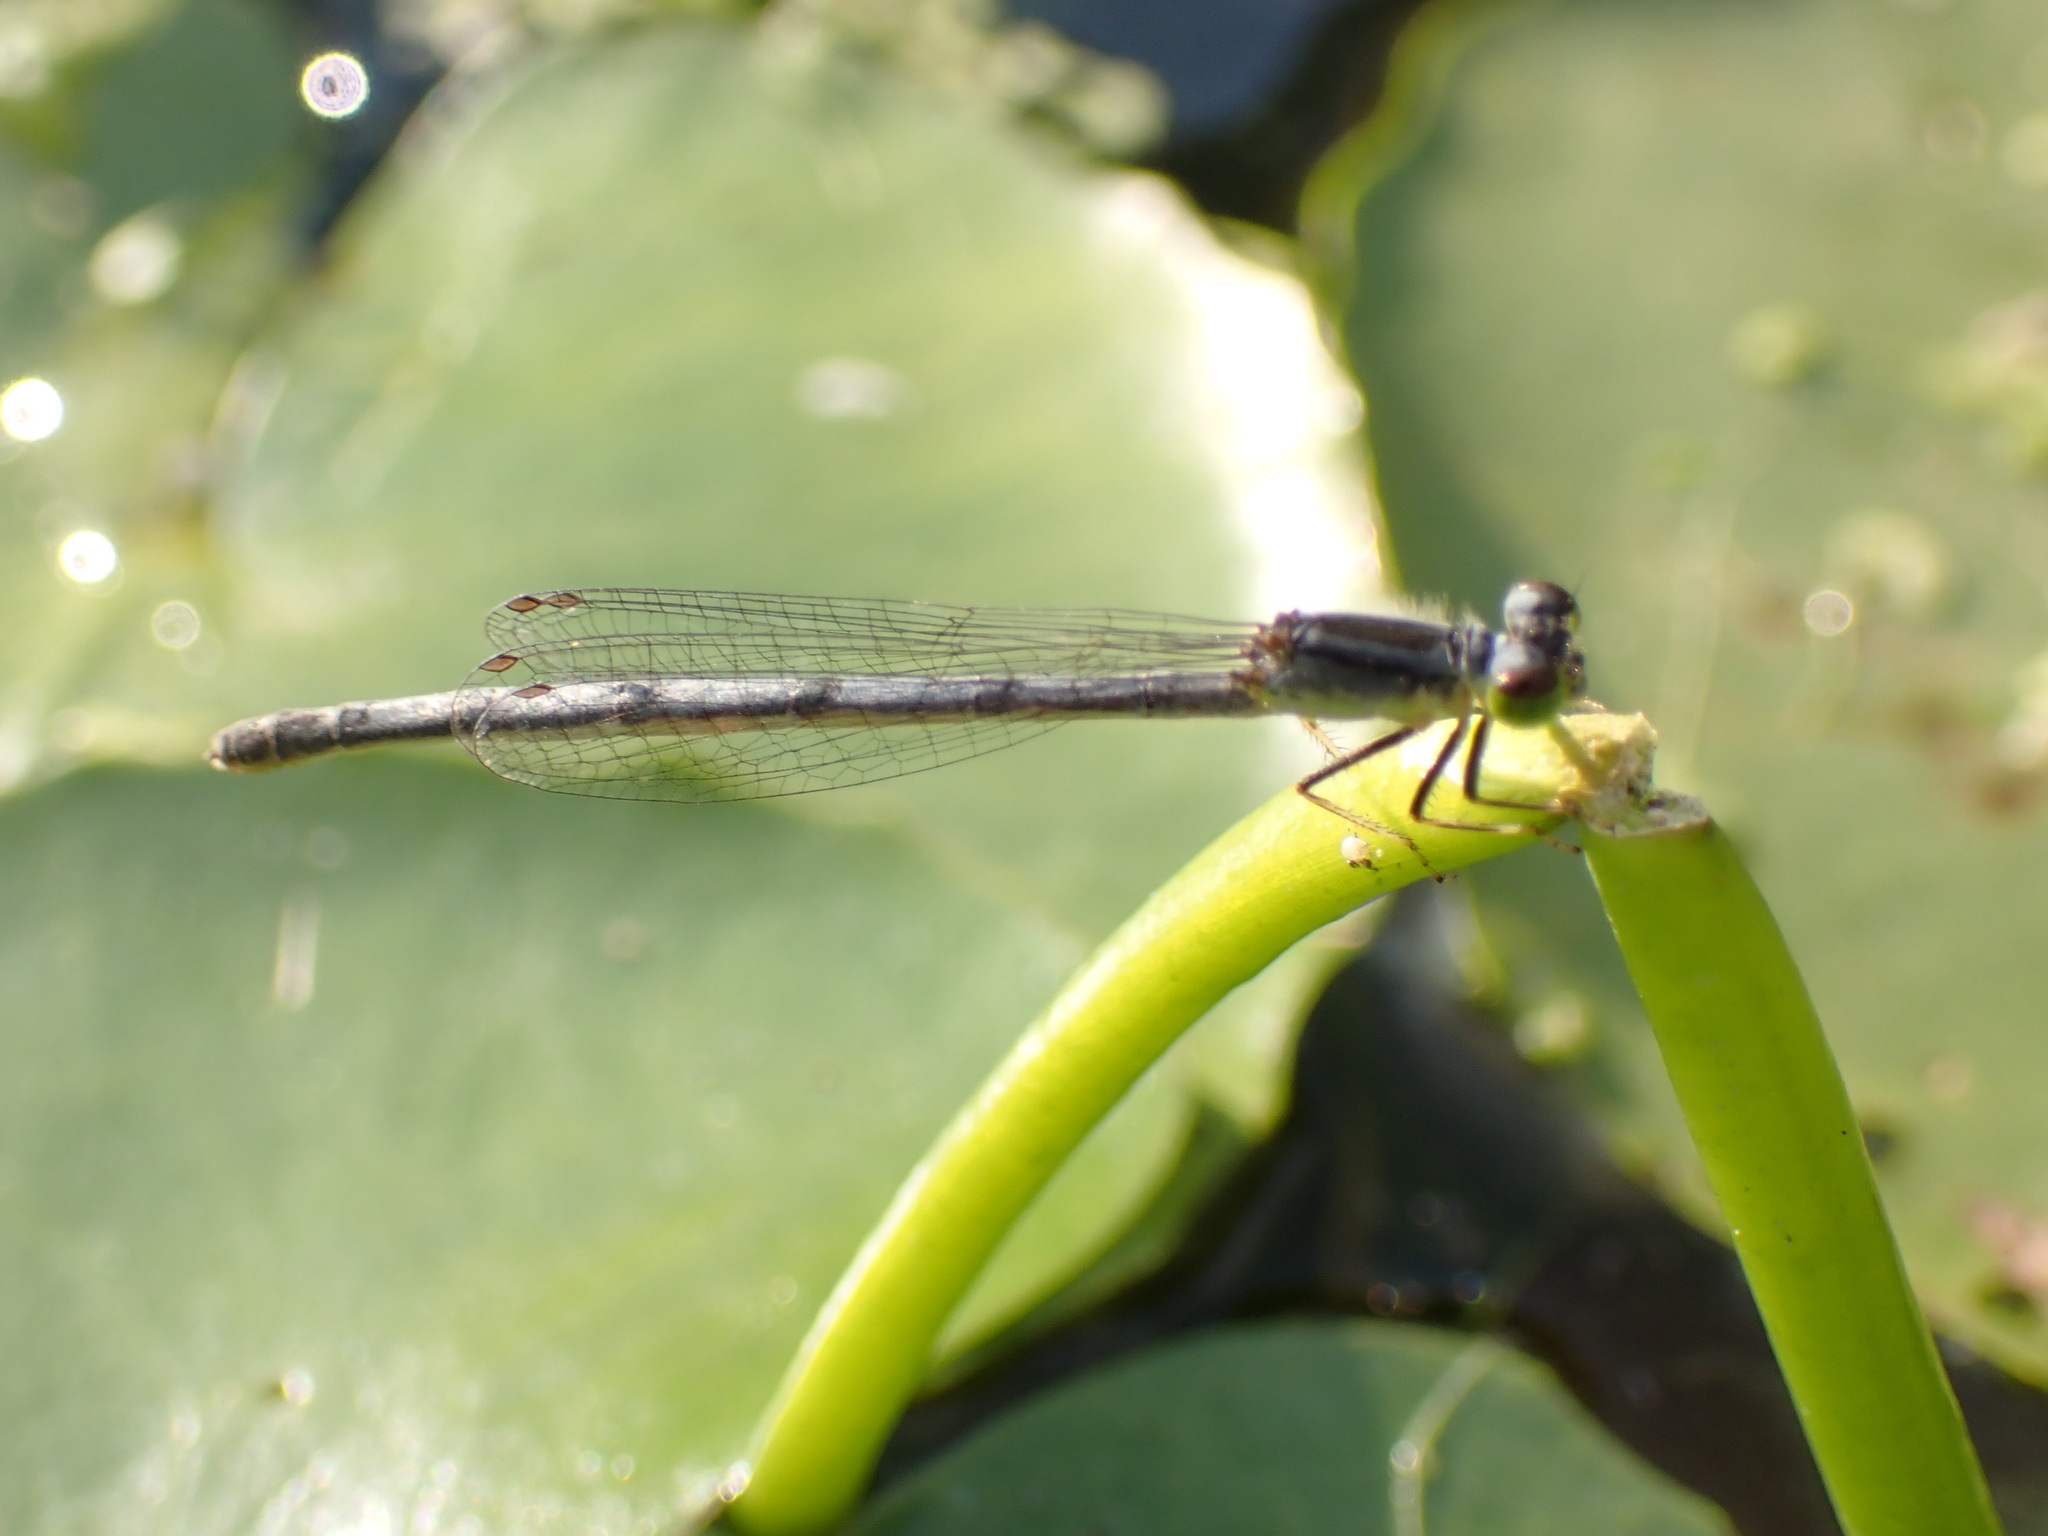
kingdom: Animalia
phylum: Arthropoda
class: Insecta
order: Odonata
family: Coenagrionidae
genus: Ischnura
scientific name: Ischnura verticalis
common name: Eastern forktail
